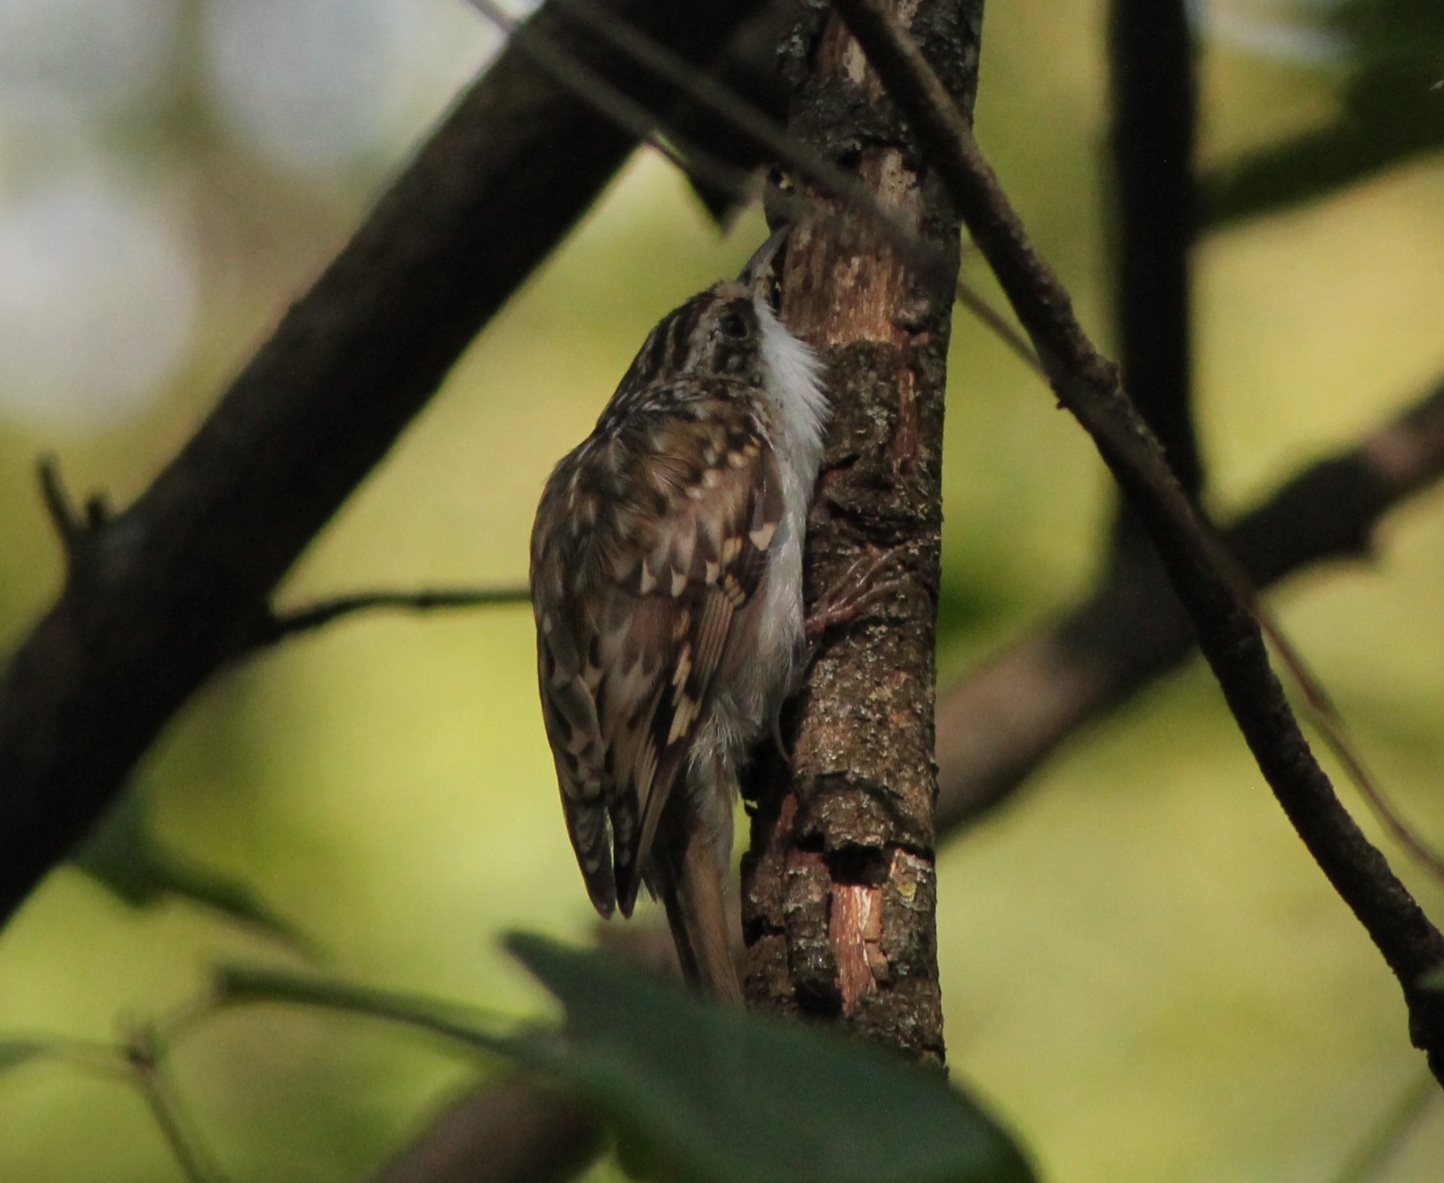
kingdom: Animalia
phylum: Chordata
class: Aves
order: Passeriformes
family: Certhiidae
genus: Certhia
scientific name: Certhia familiaris
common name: Eurasian treecreeper
